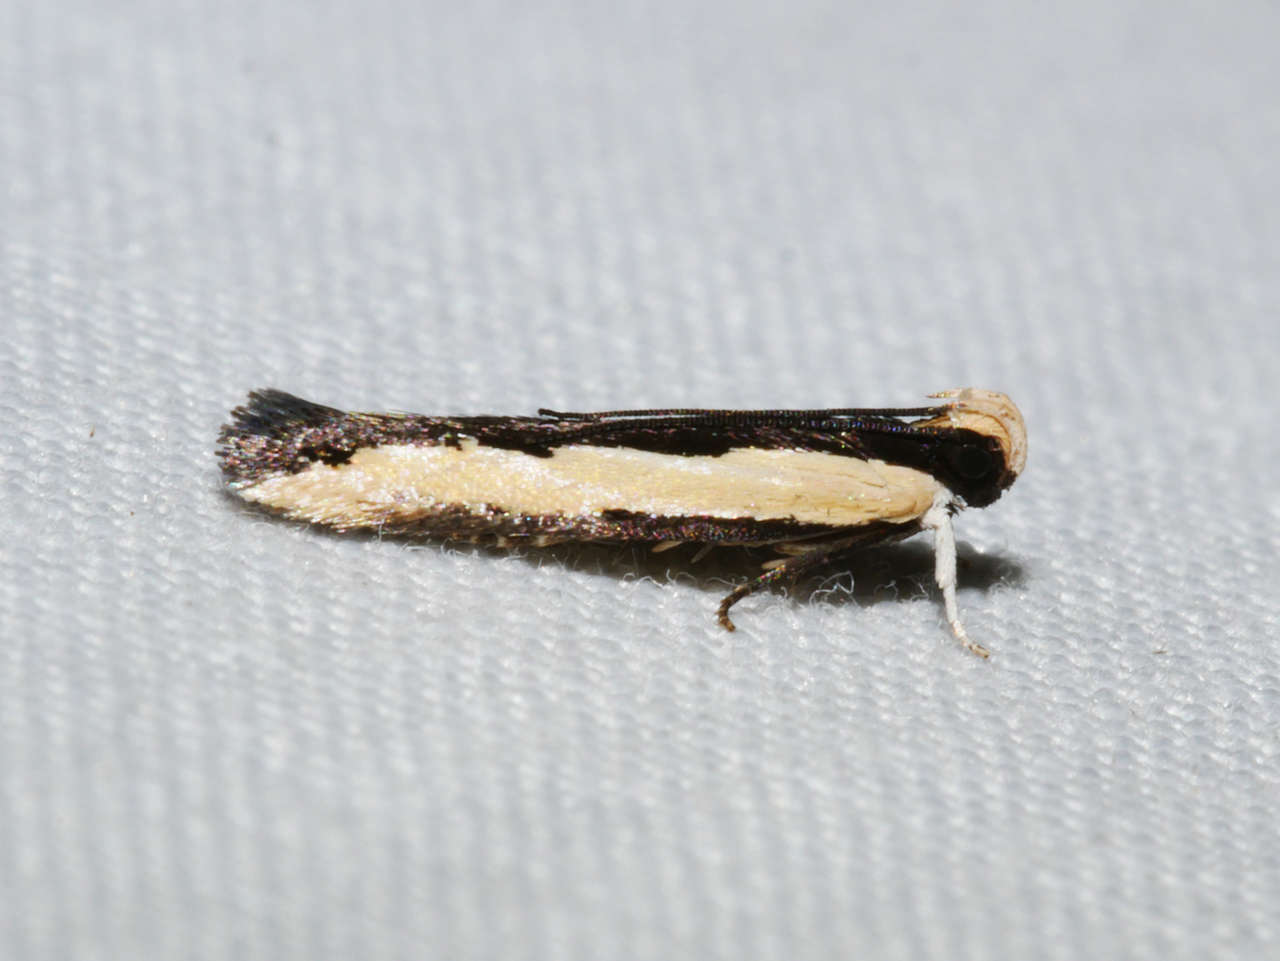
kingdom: Animalia
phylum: Arthropoda
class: Insecta
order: Lepidoptera
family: Gelechiidae
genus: Ardozyga
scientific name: Ardozyga stratifera
